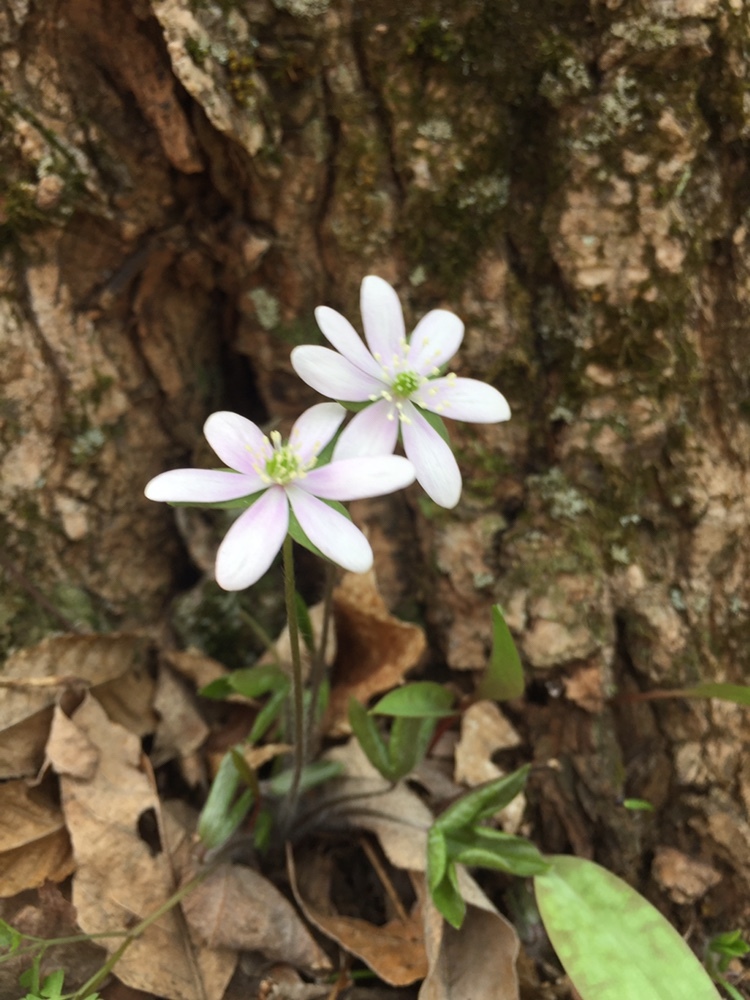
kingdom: Plantae
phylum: Tracheophyta
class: Magnoliopsida
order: Ranunculales
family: Ranunculaceae
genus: Hepatica
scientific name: Hepatica acutiloba
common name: Sharp-lobed hepatica
